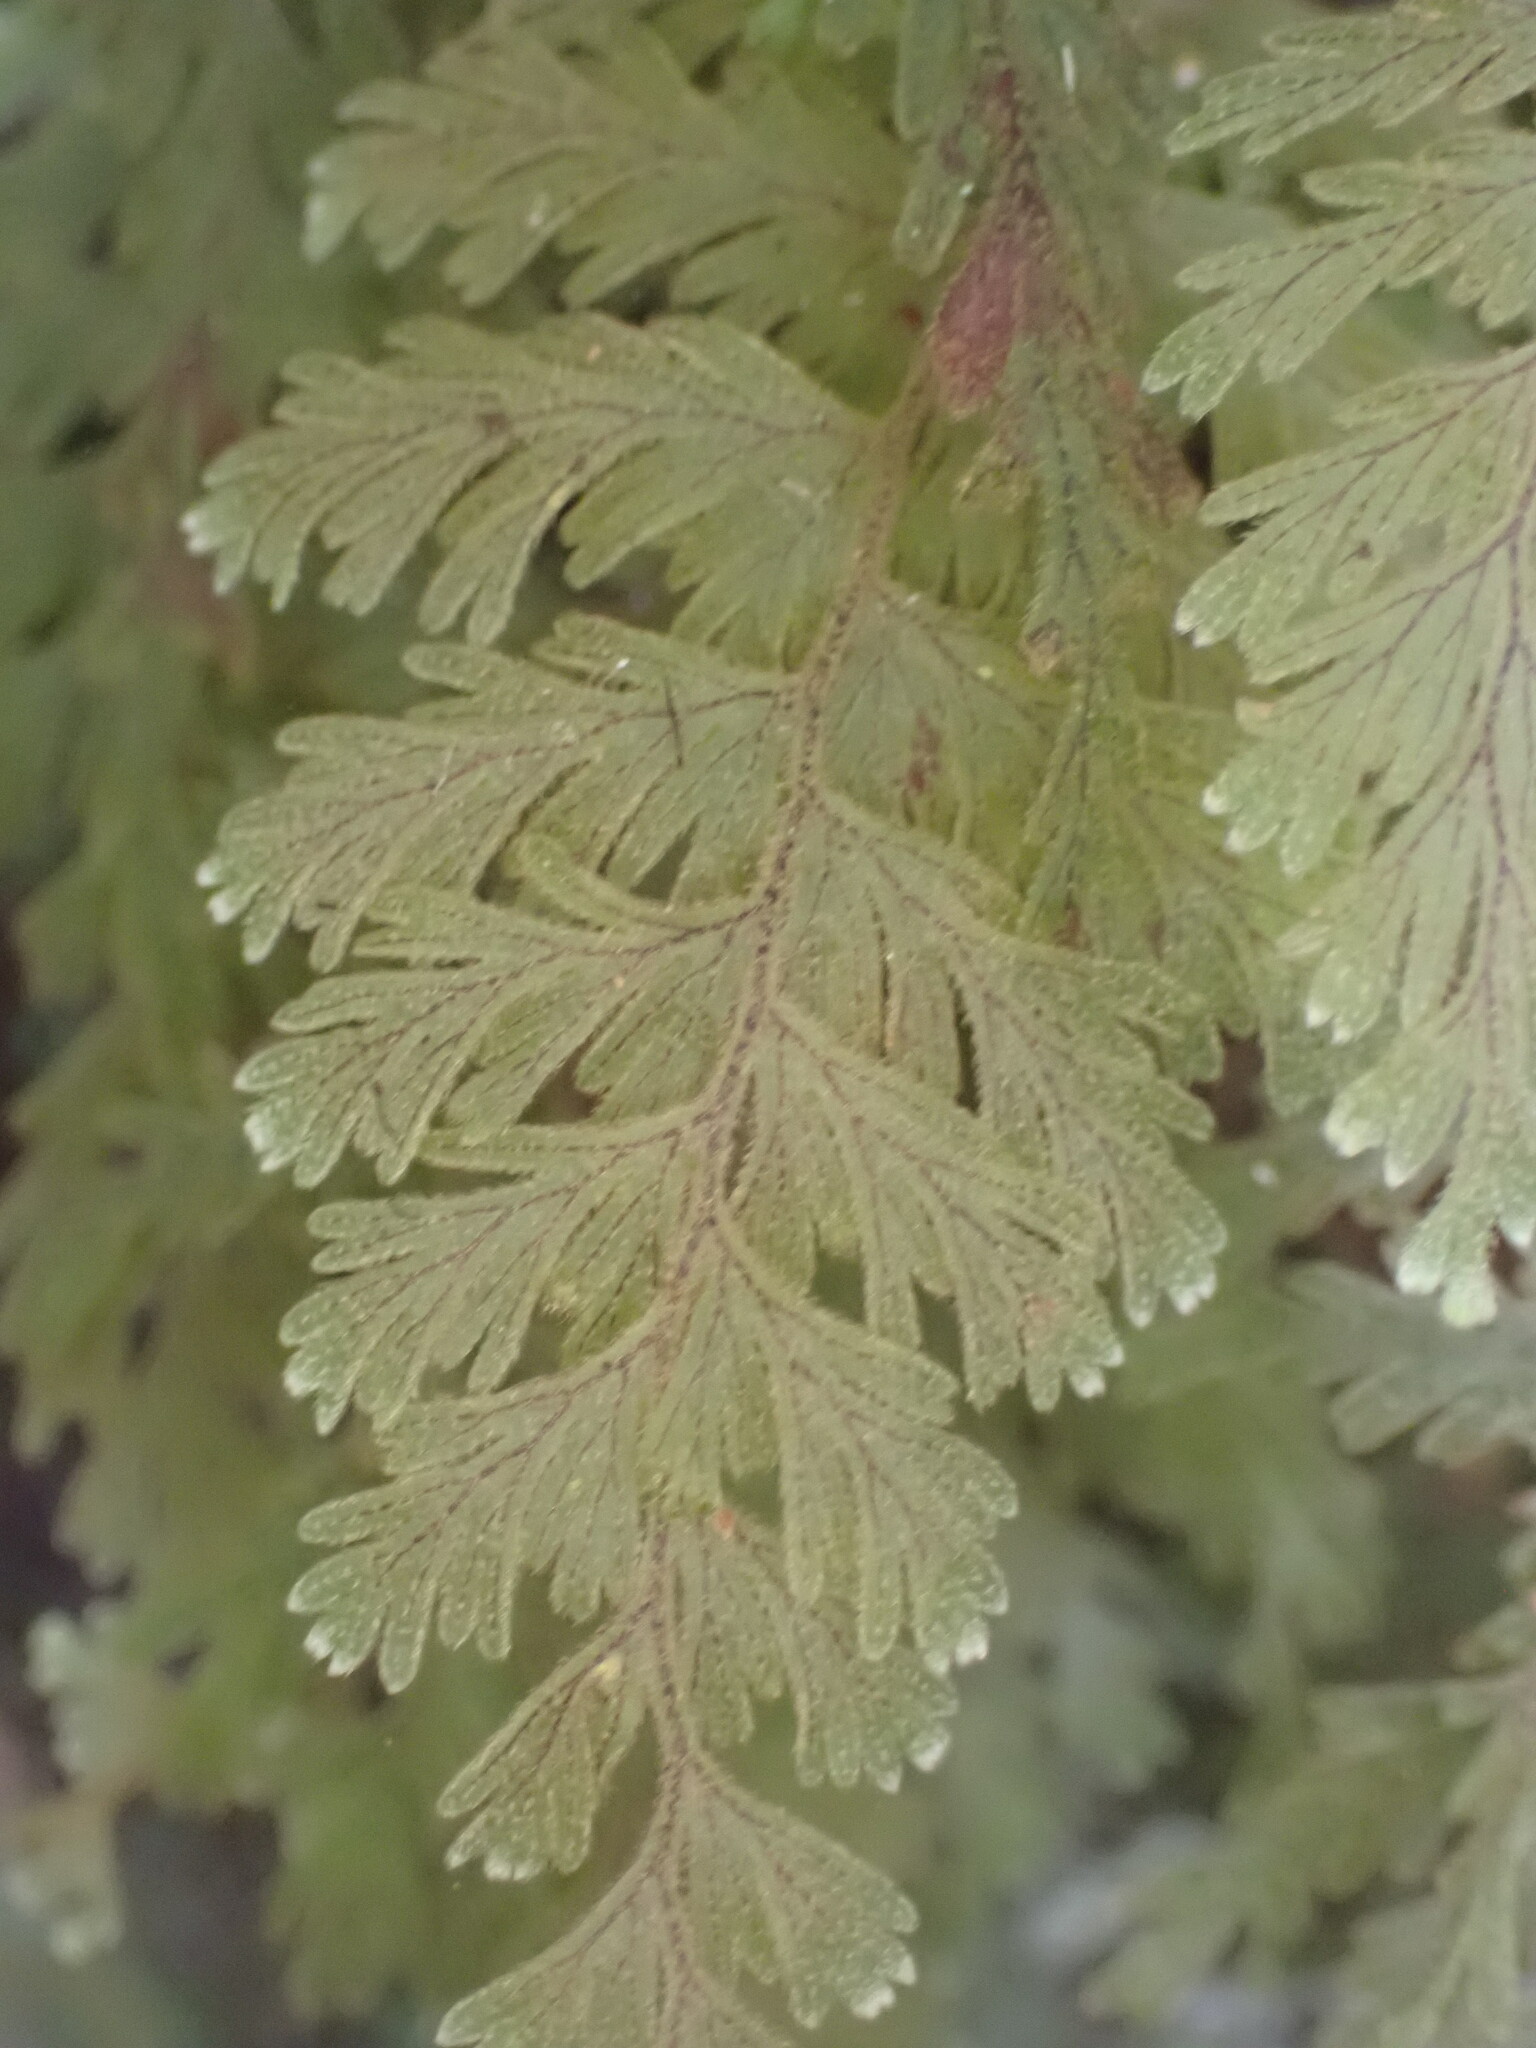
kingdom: Plantae
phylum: Tracheophyta
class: Polypodiopsida
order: Hymenophyllales
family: Hymenophyllaceae
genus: Hymenophyllum
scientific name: Hymenophyllum frankliniae
